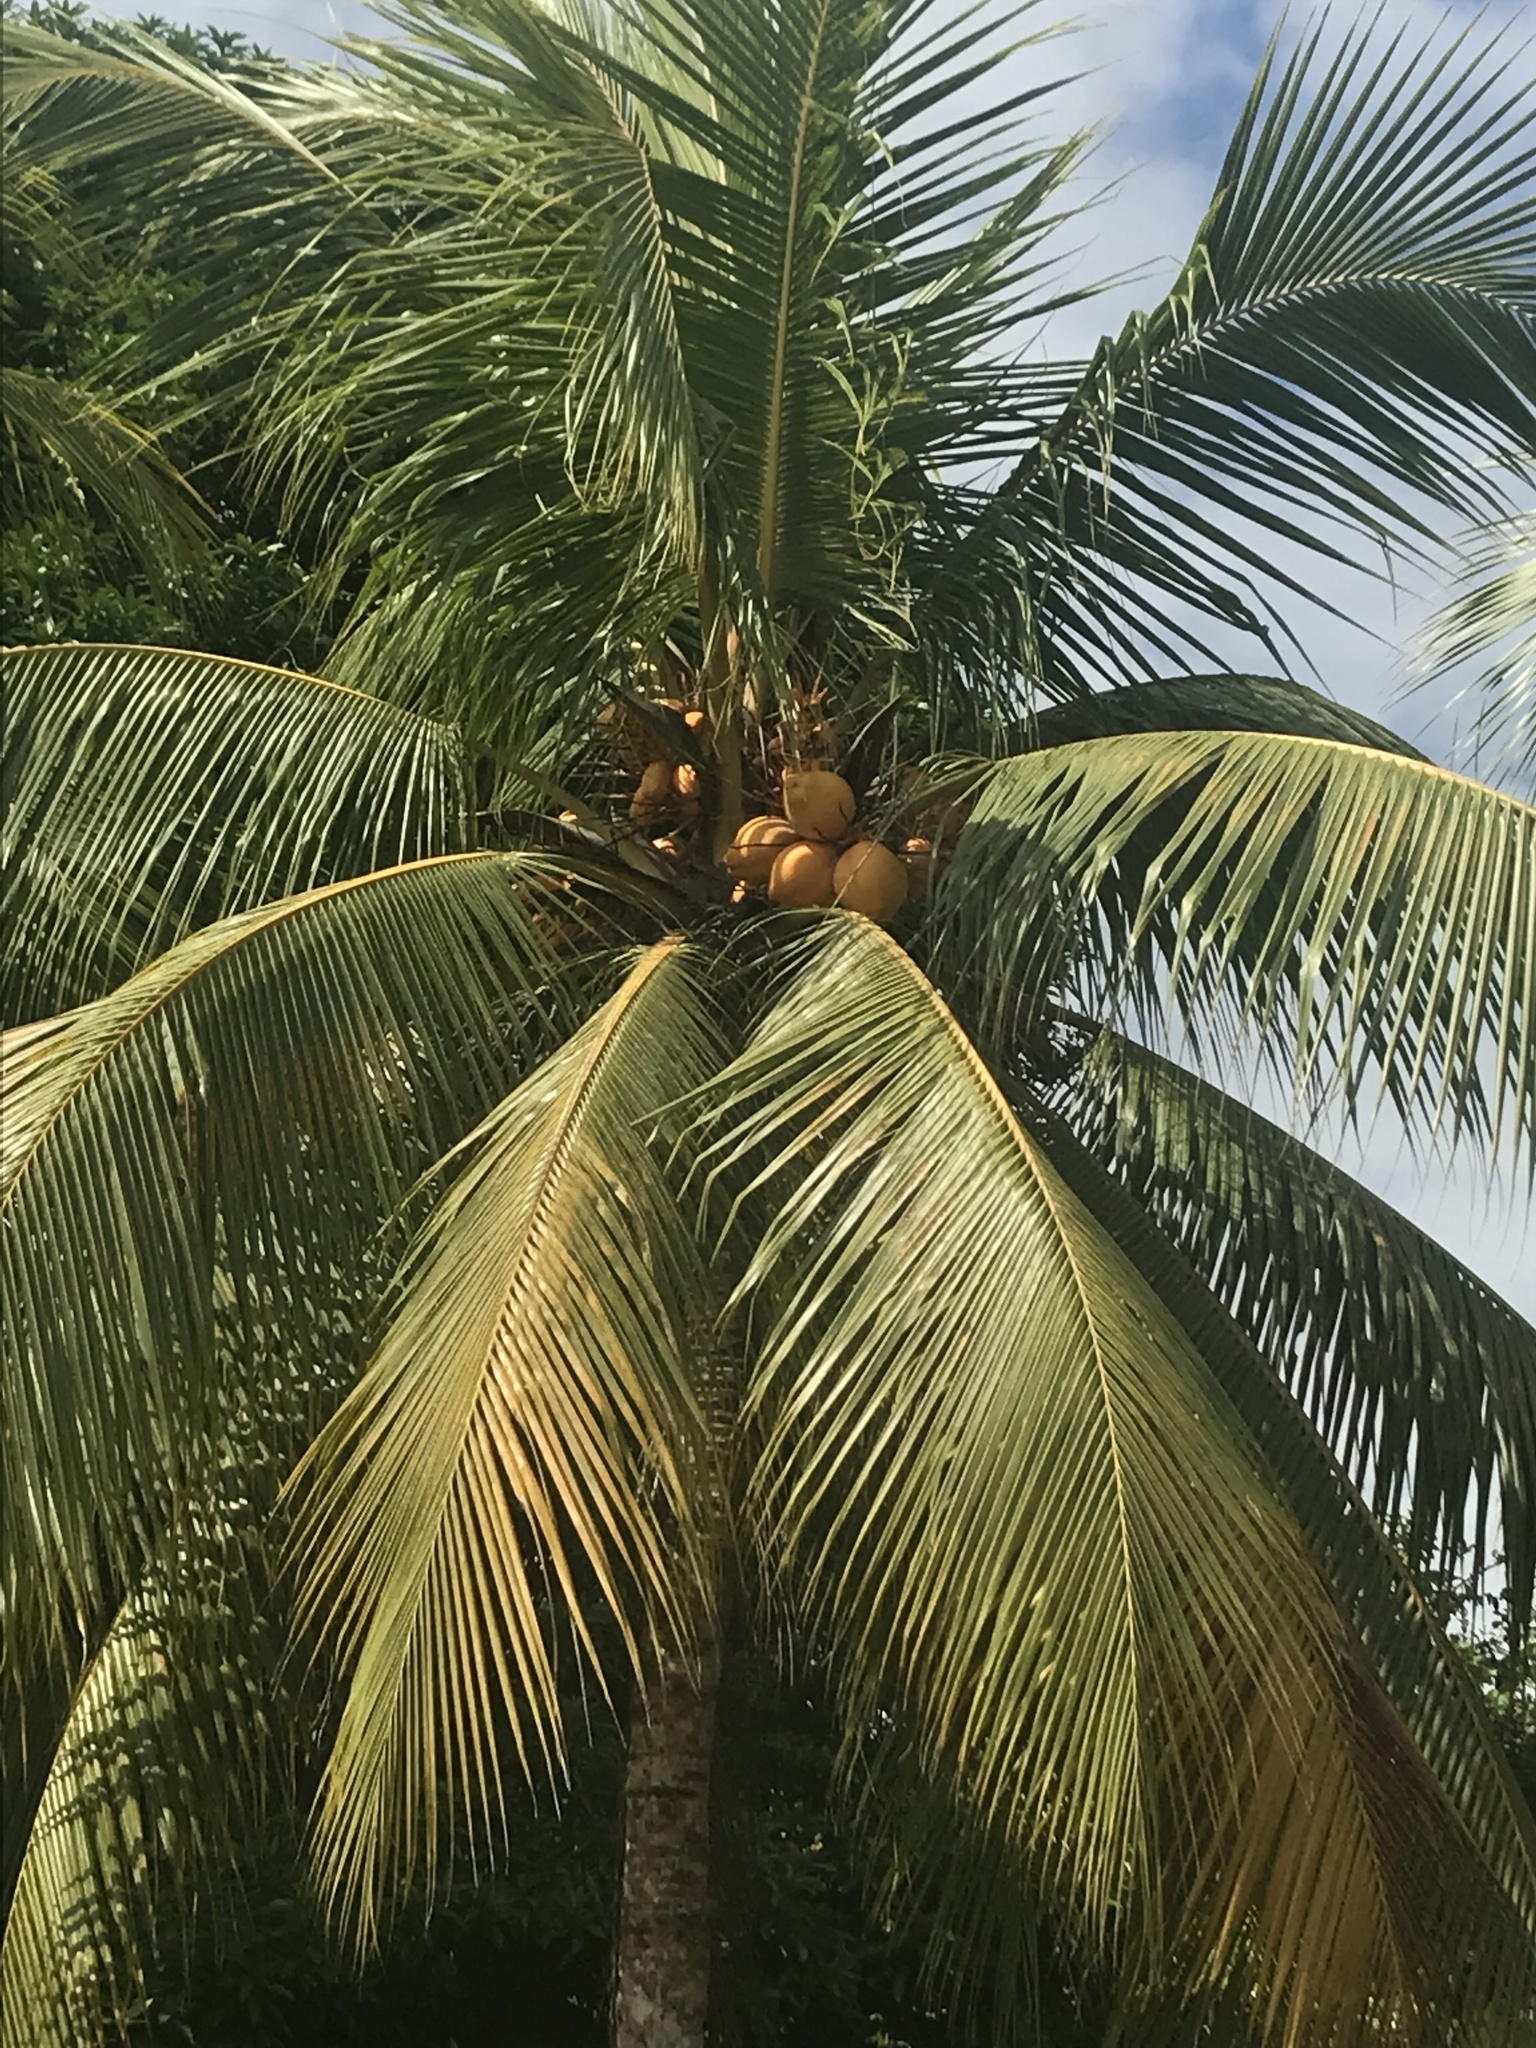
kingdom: Plantae
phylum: Tracheophyta
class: Liliopsida
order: Arecales
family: Arecaceae
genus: Cocos
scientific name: Cocos nucifera
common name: Coconut palm
